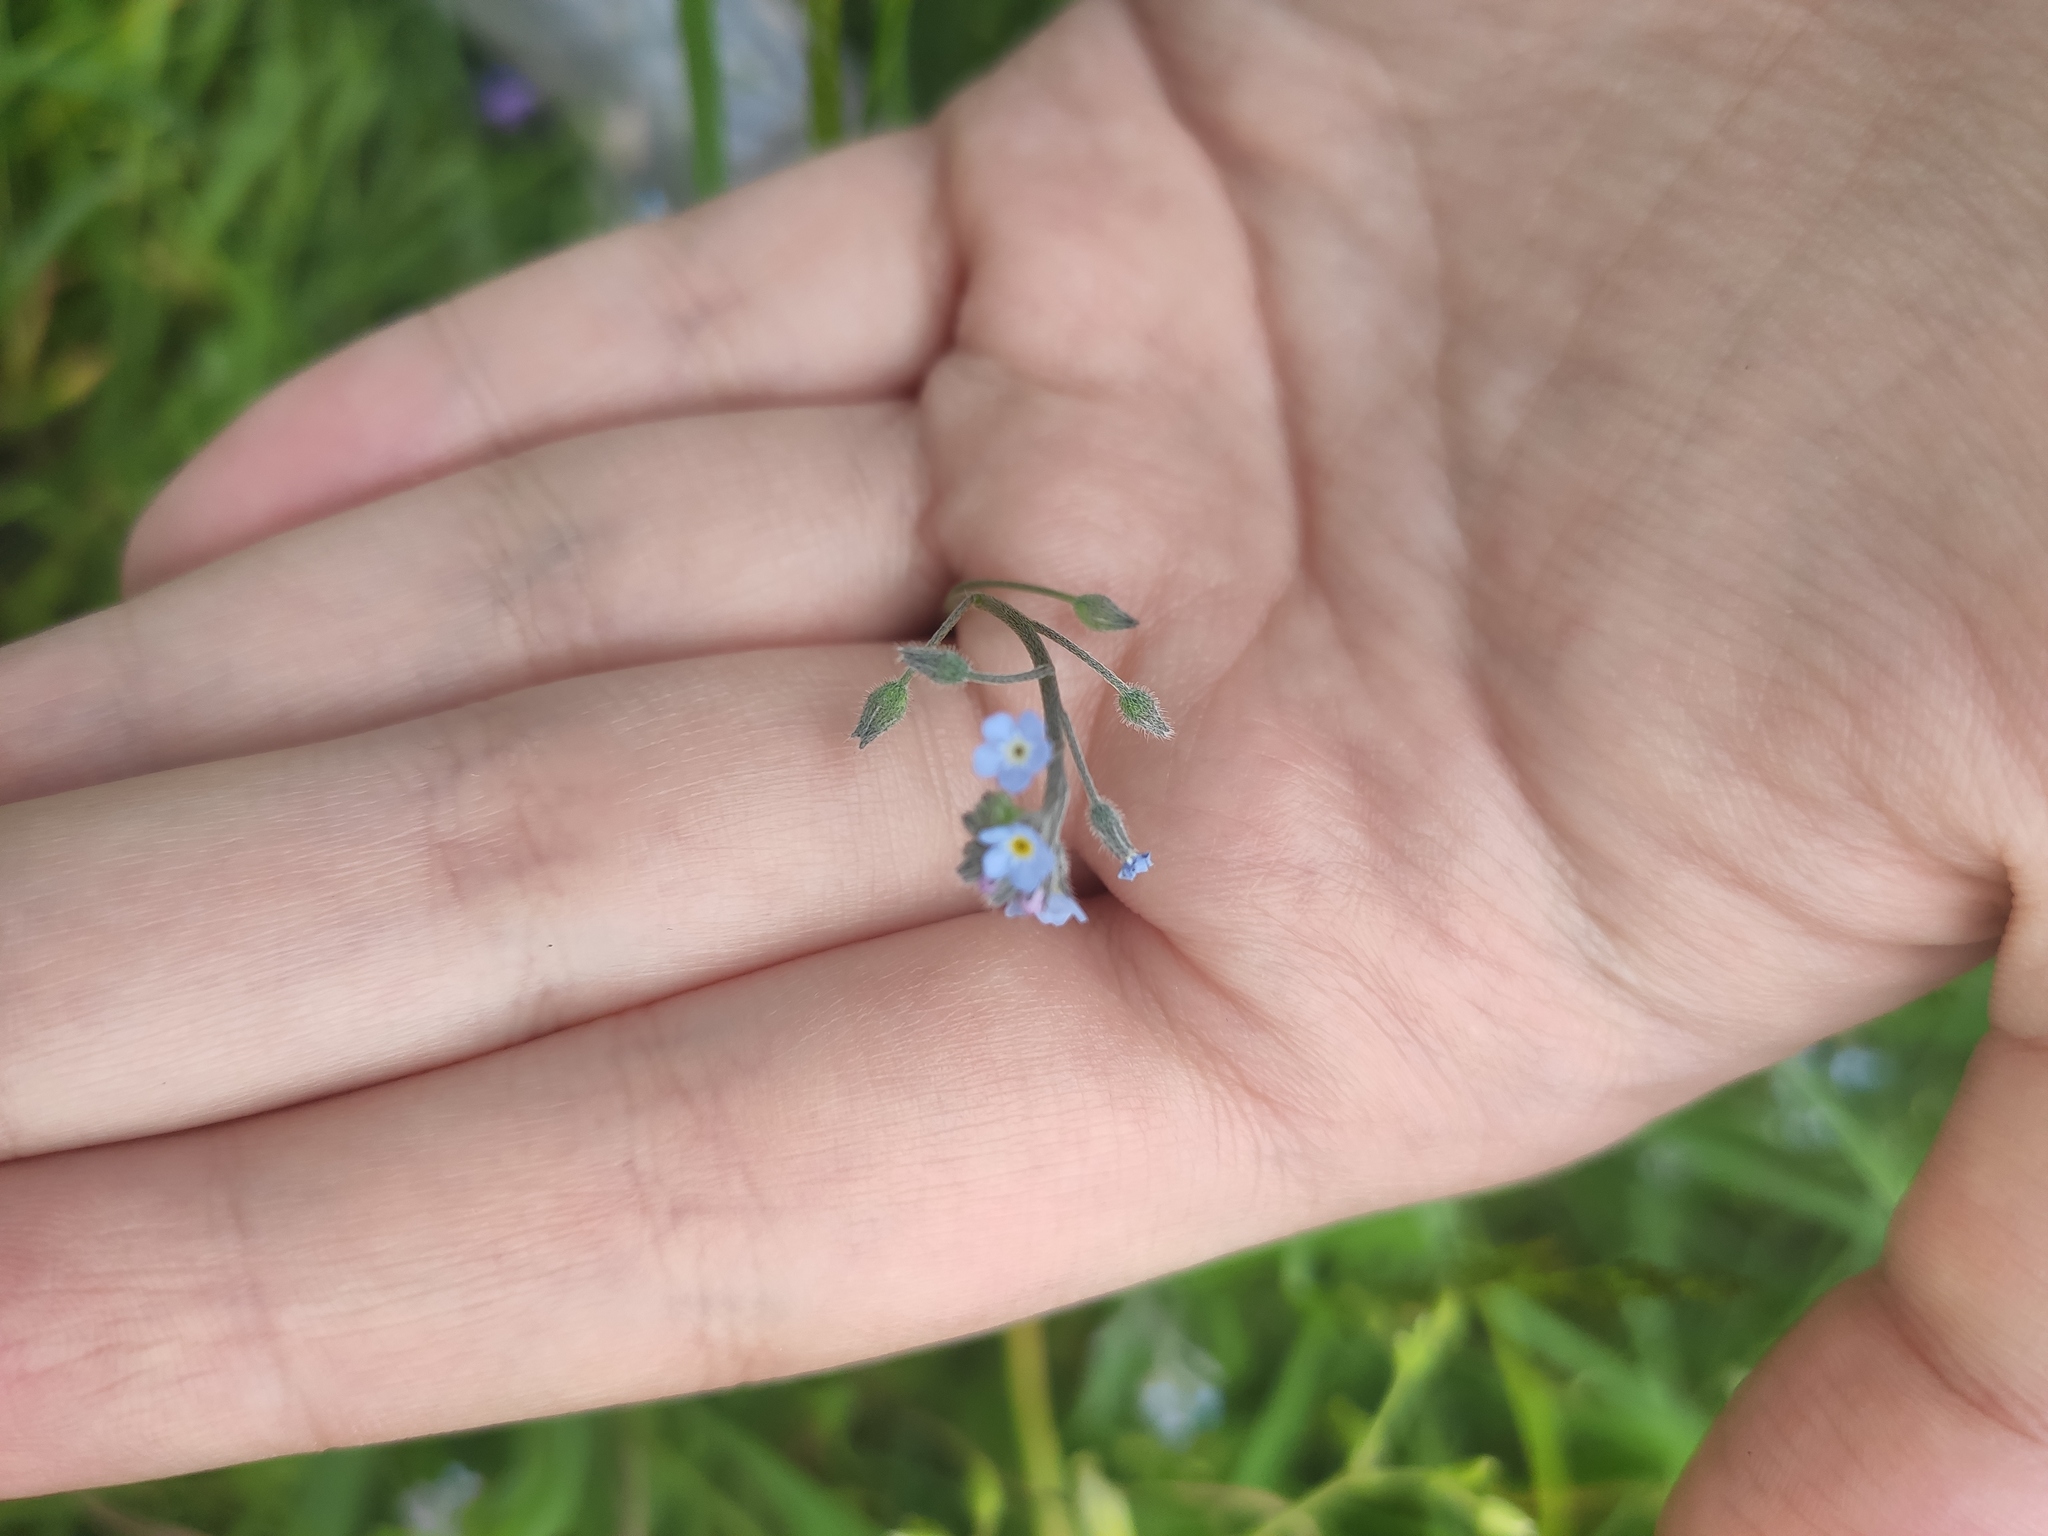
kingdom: Plantae
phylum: Tracheophyta
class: Magnoliopsida
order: Boraginales
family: Boraginaceae
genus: Myosotis
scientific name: Myosotis arvensis
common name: Field forget-me-not
